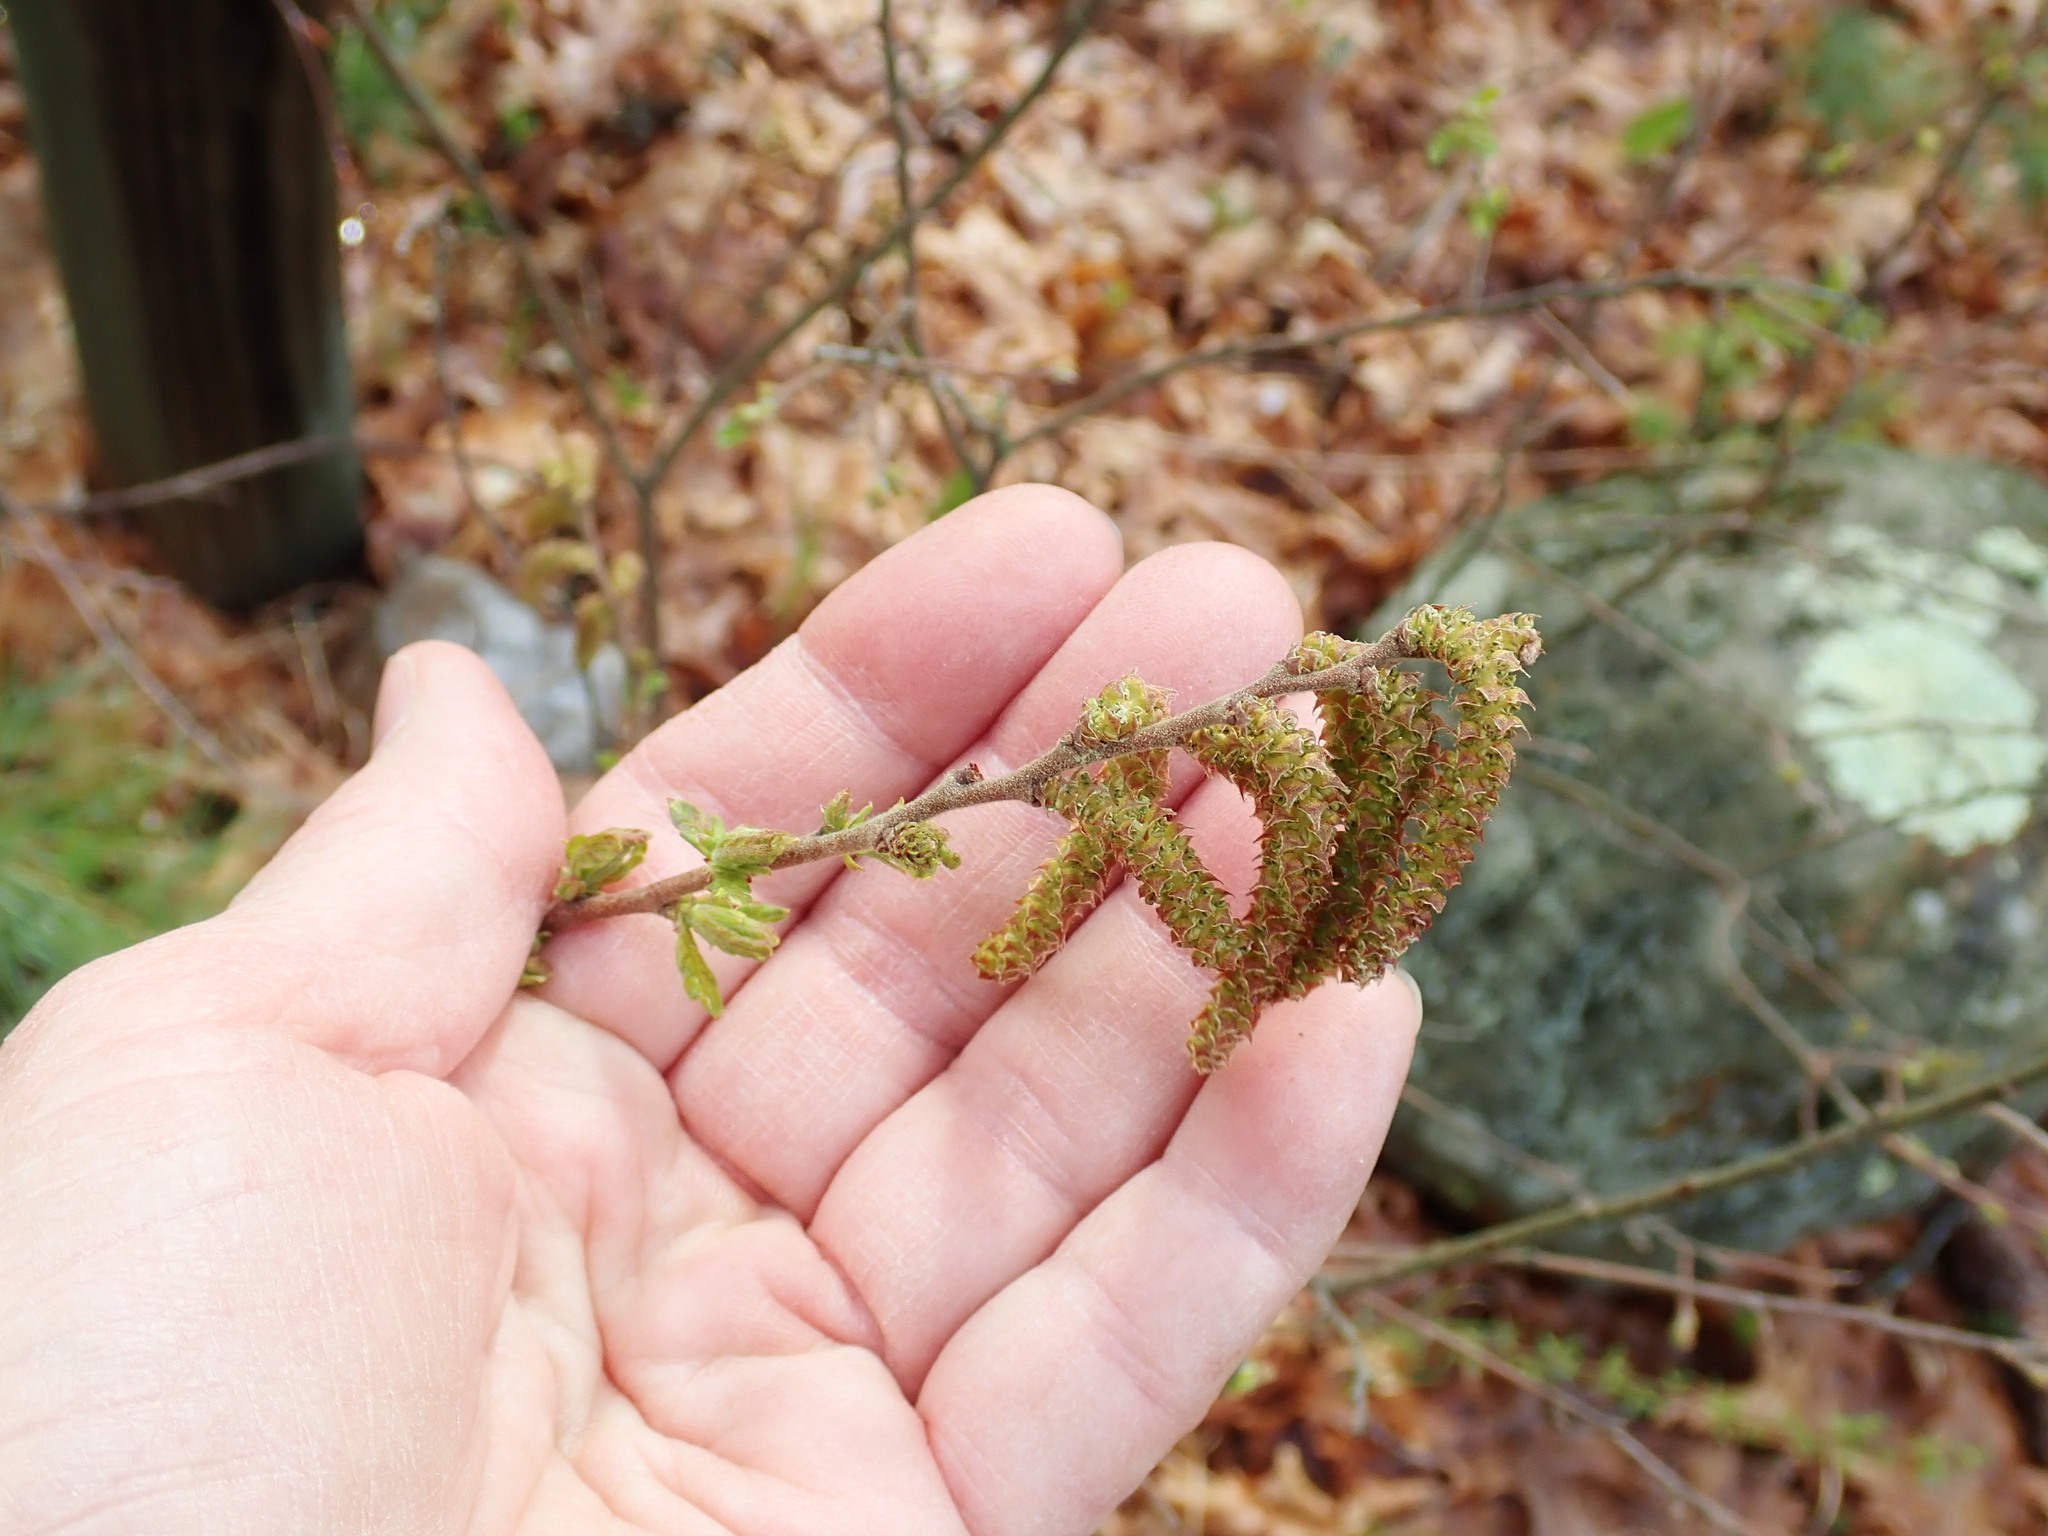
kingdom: Plantae
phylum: Tracheophyta
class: Magnoliopsida
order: Fagales
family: Myricaceae
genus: Comptonia
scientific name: Comptonia peregrina
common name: Sweet-fern
